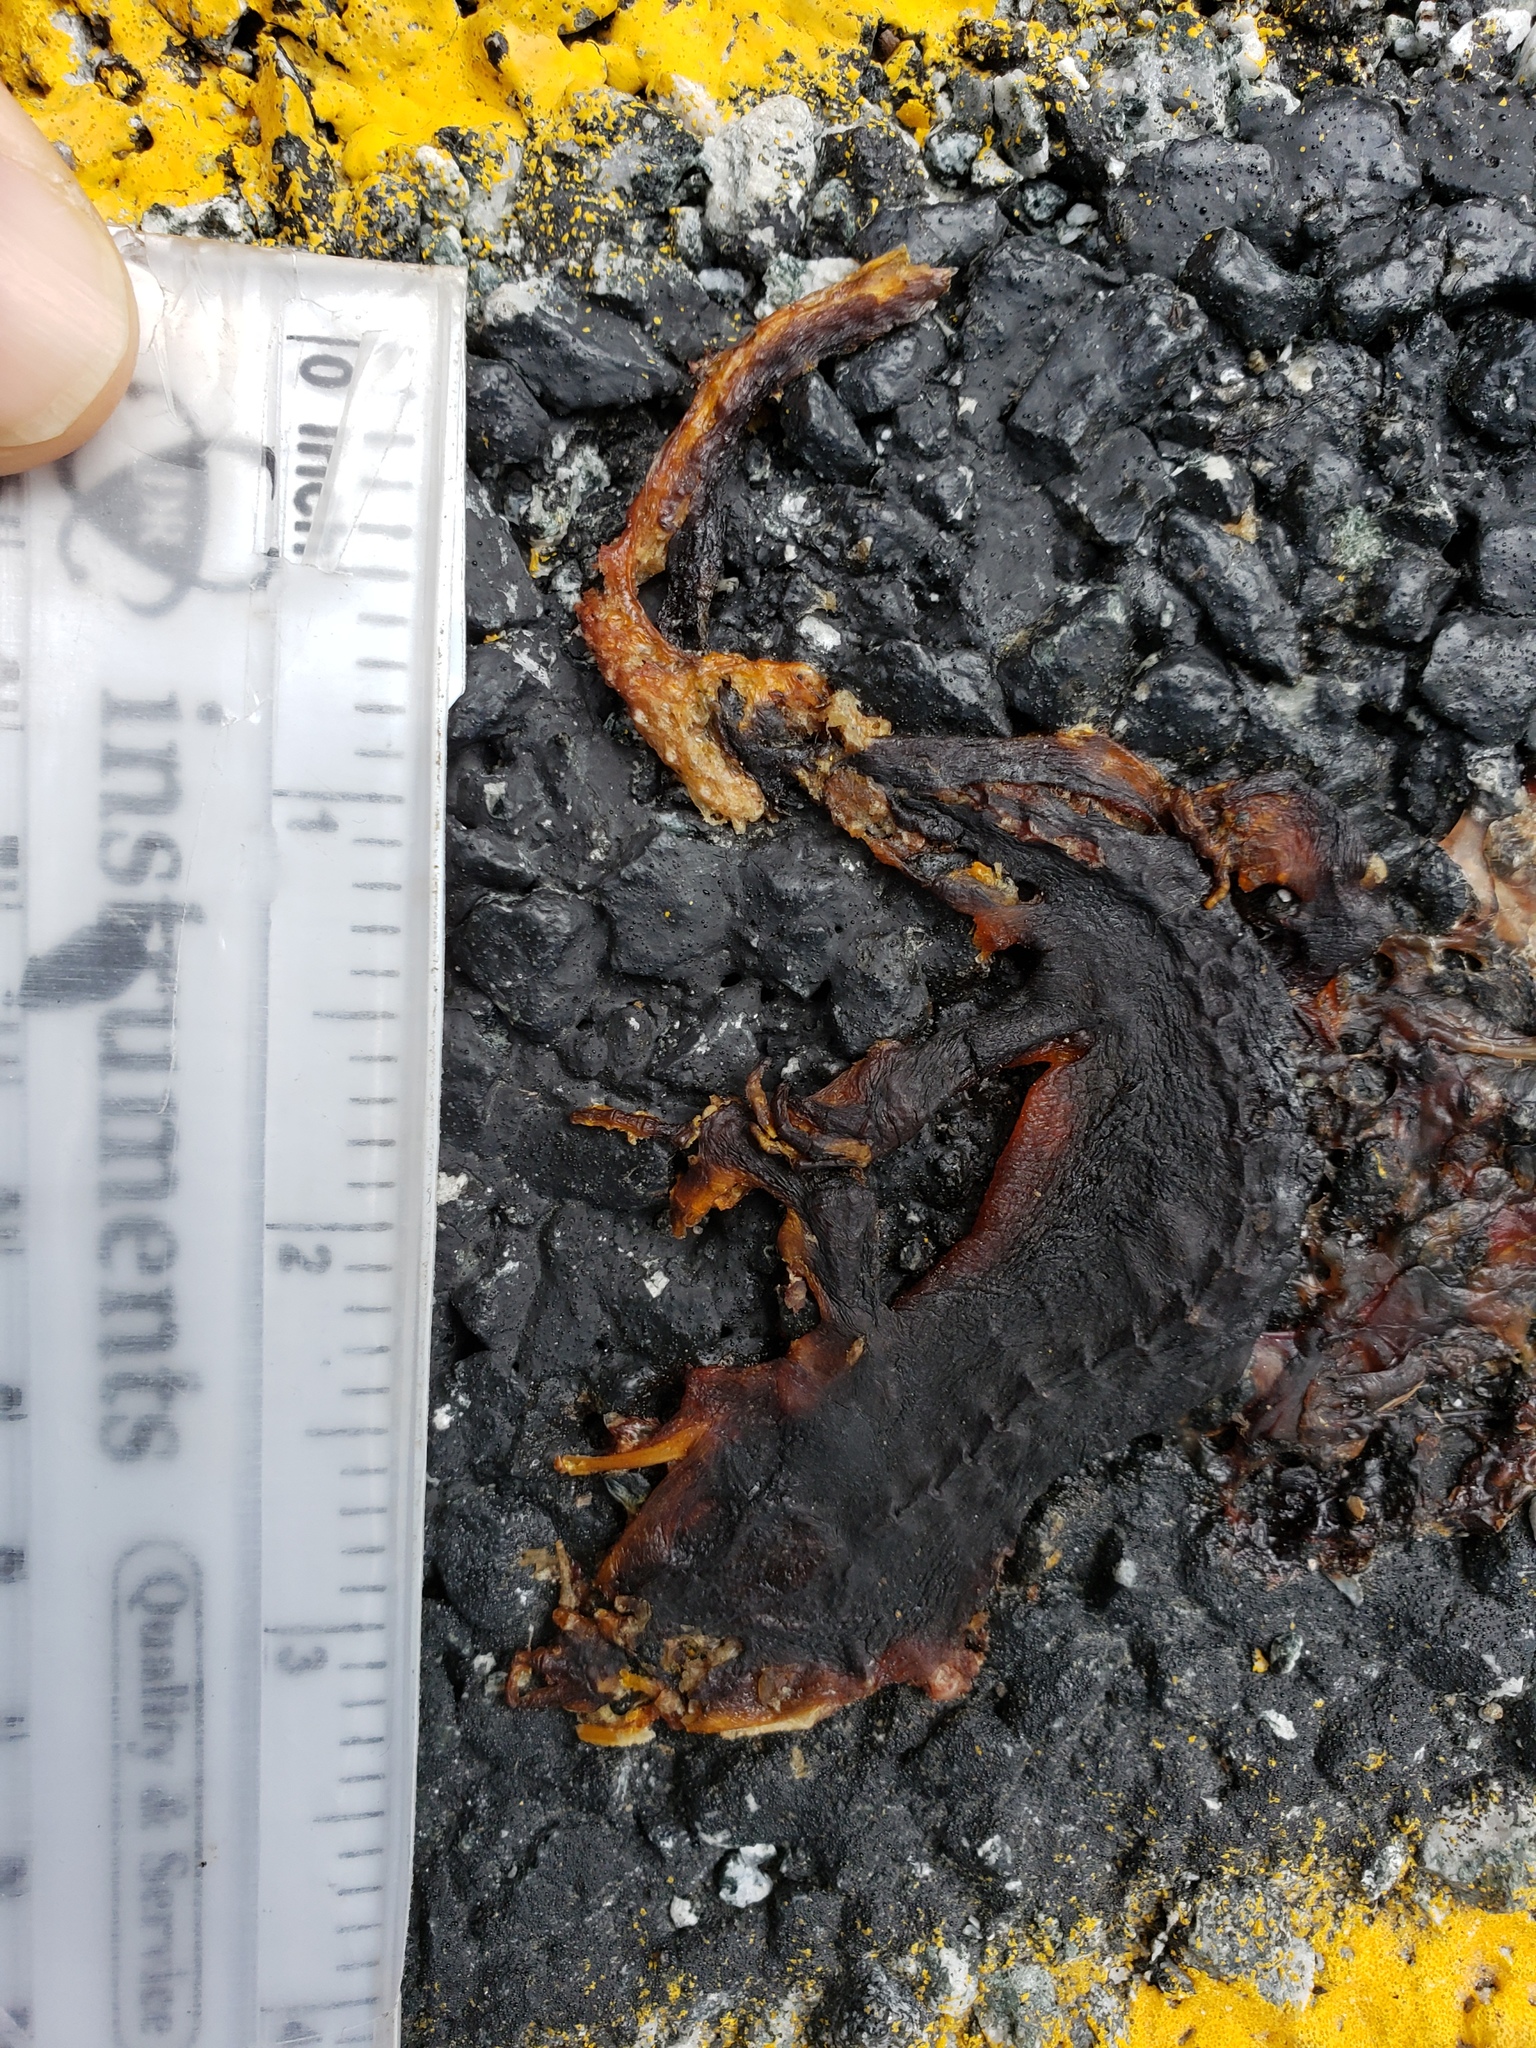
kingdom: Animalia
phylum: Chordata
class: Amphibia
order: Caudata
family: Salamandridae
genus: Taricha
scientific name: Taricha
